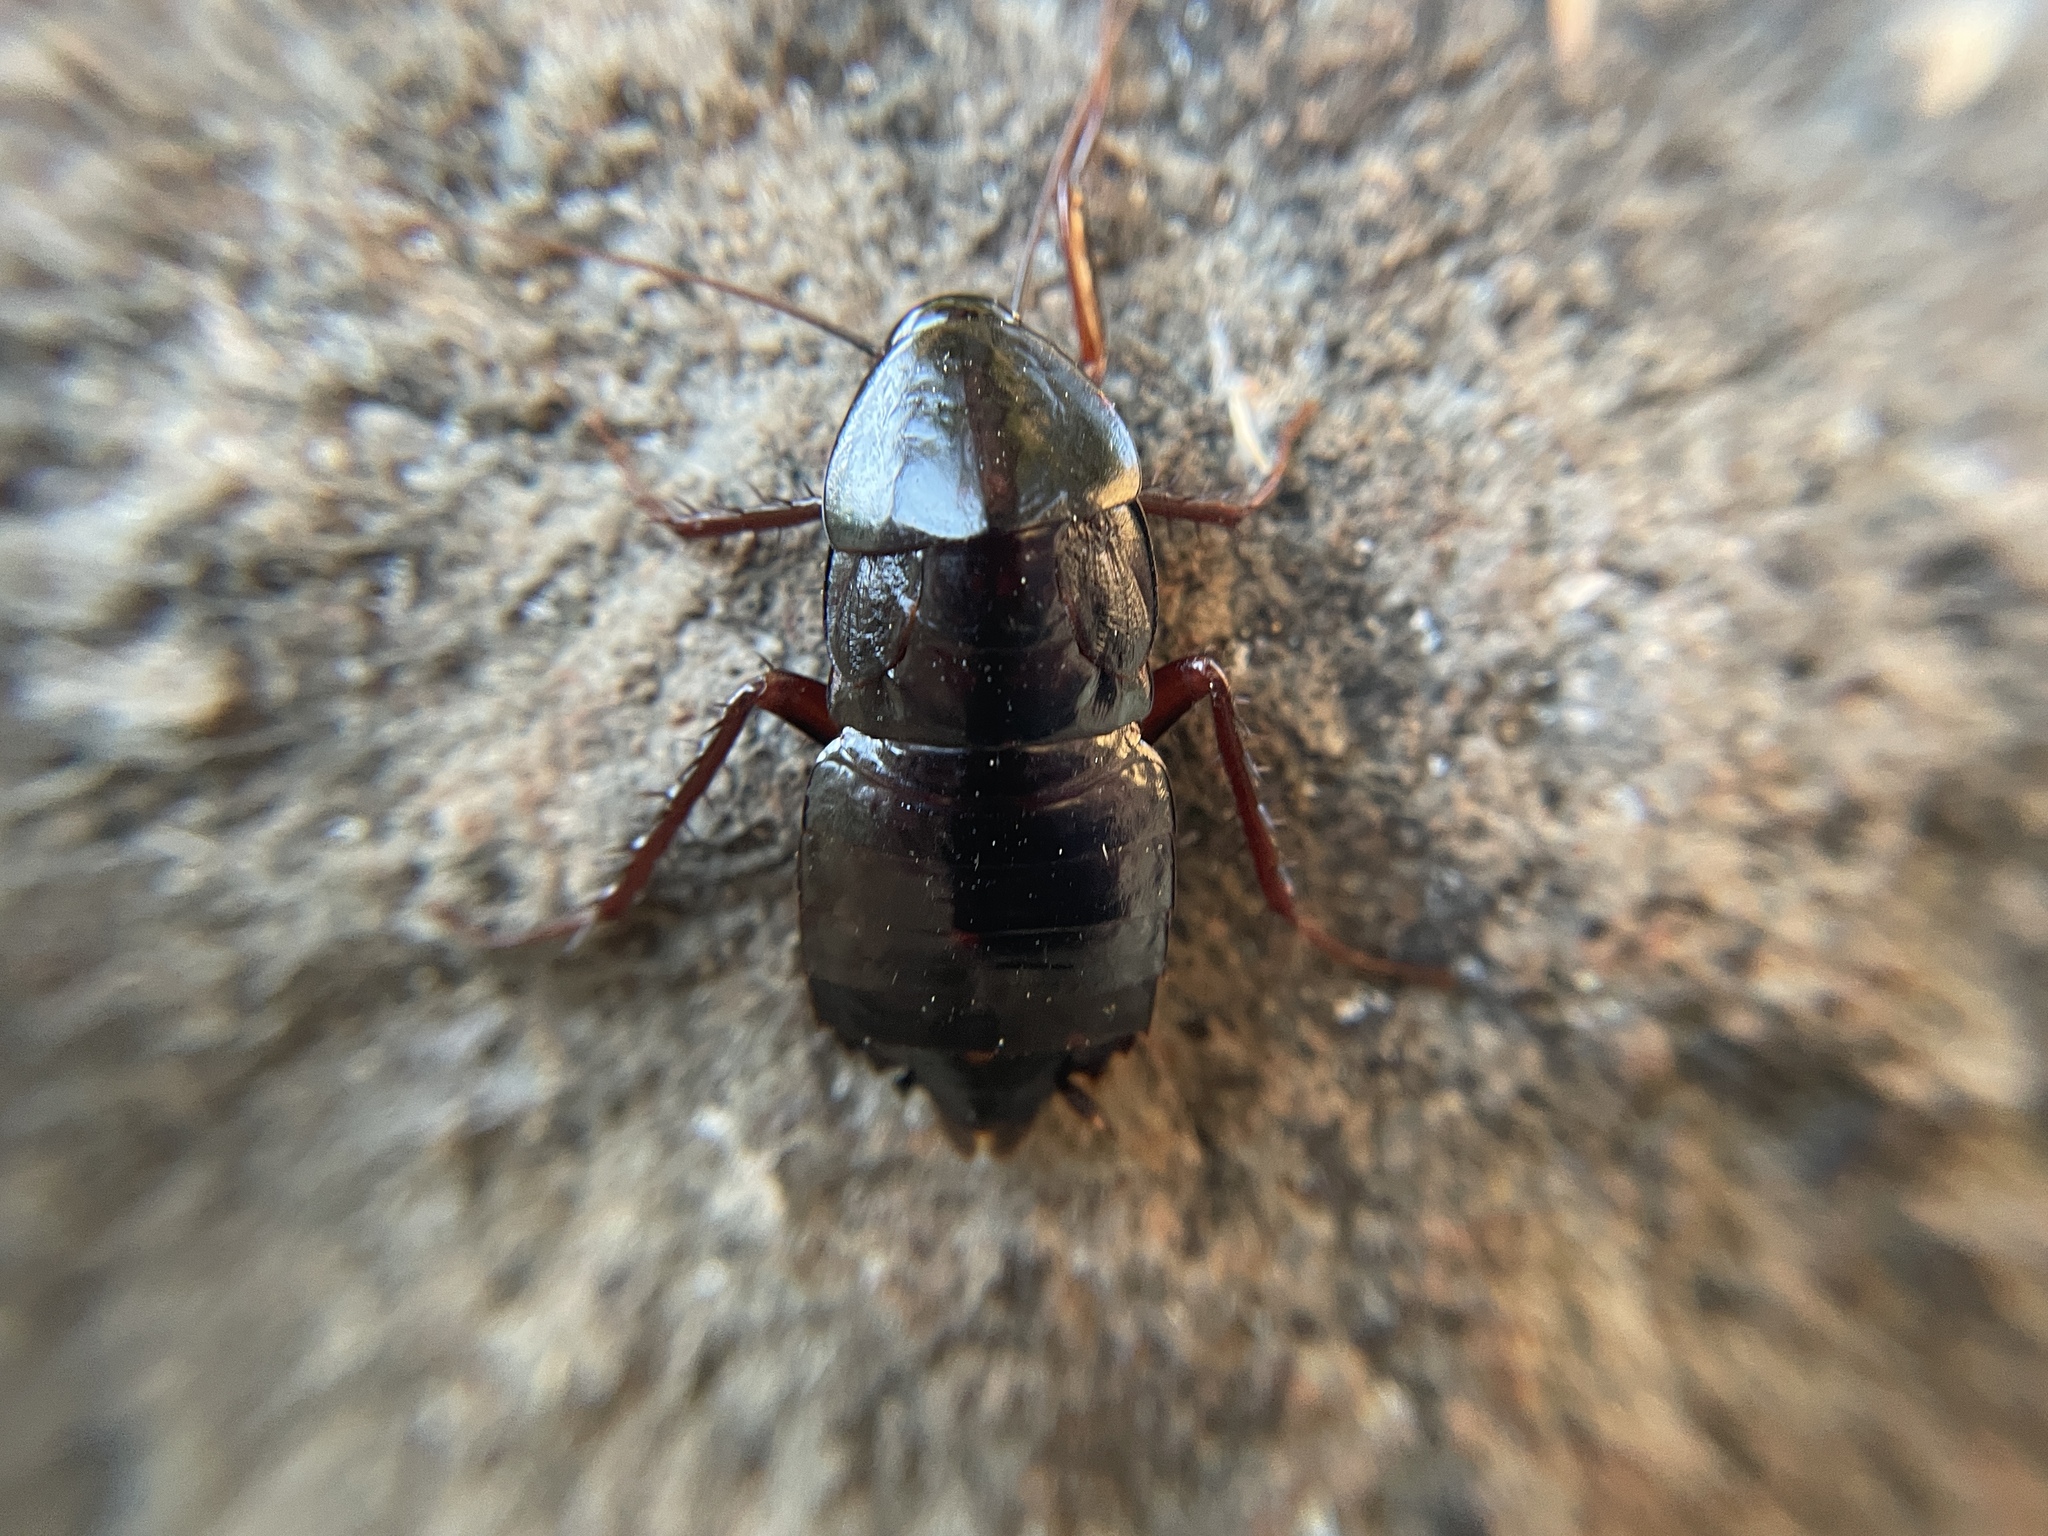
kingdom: Animalia
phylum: Arthropoda
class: Insecta
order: Blattodea
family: Blattidae
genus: Blatta
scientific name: Blatta orientalis
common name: Oriental cockroach
